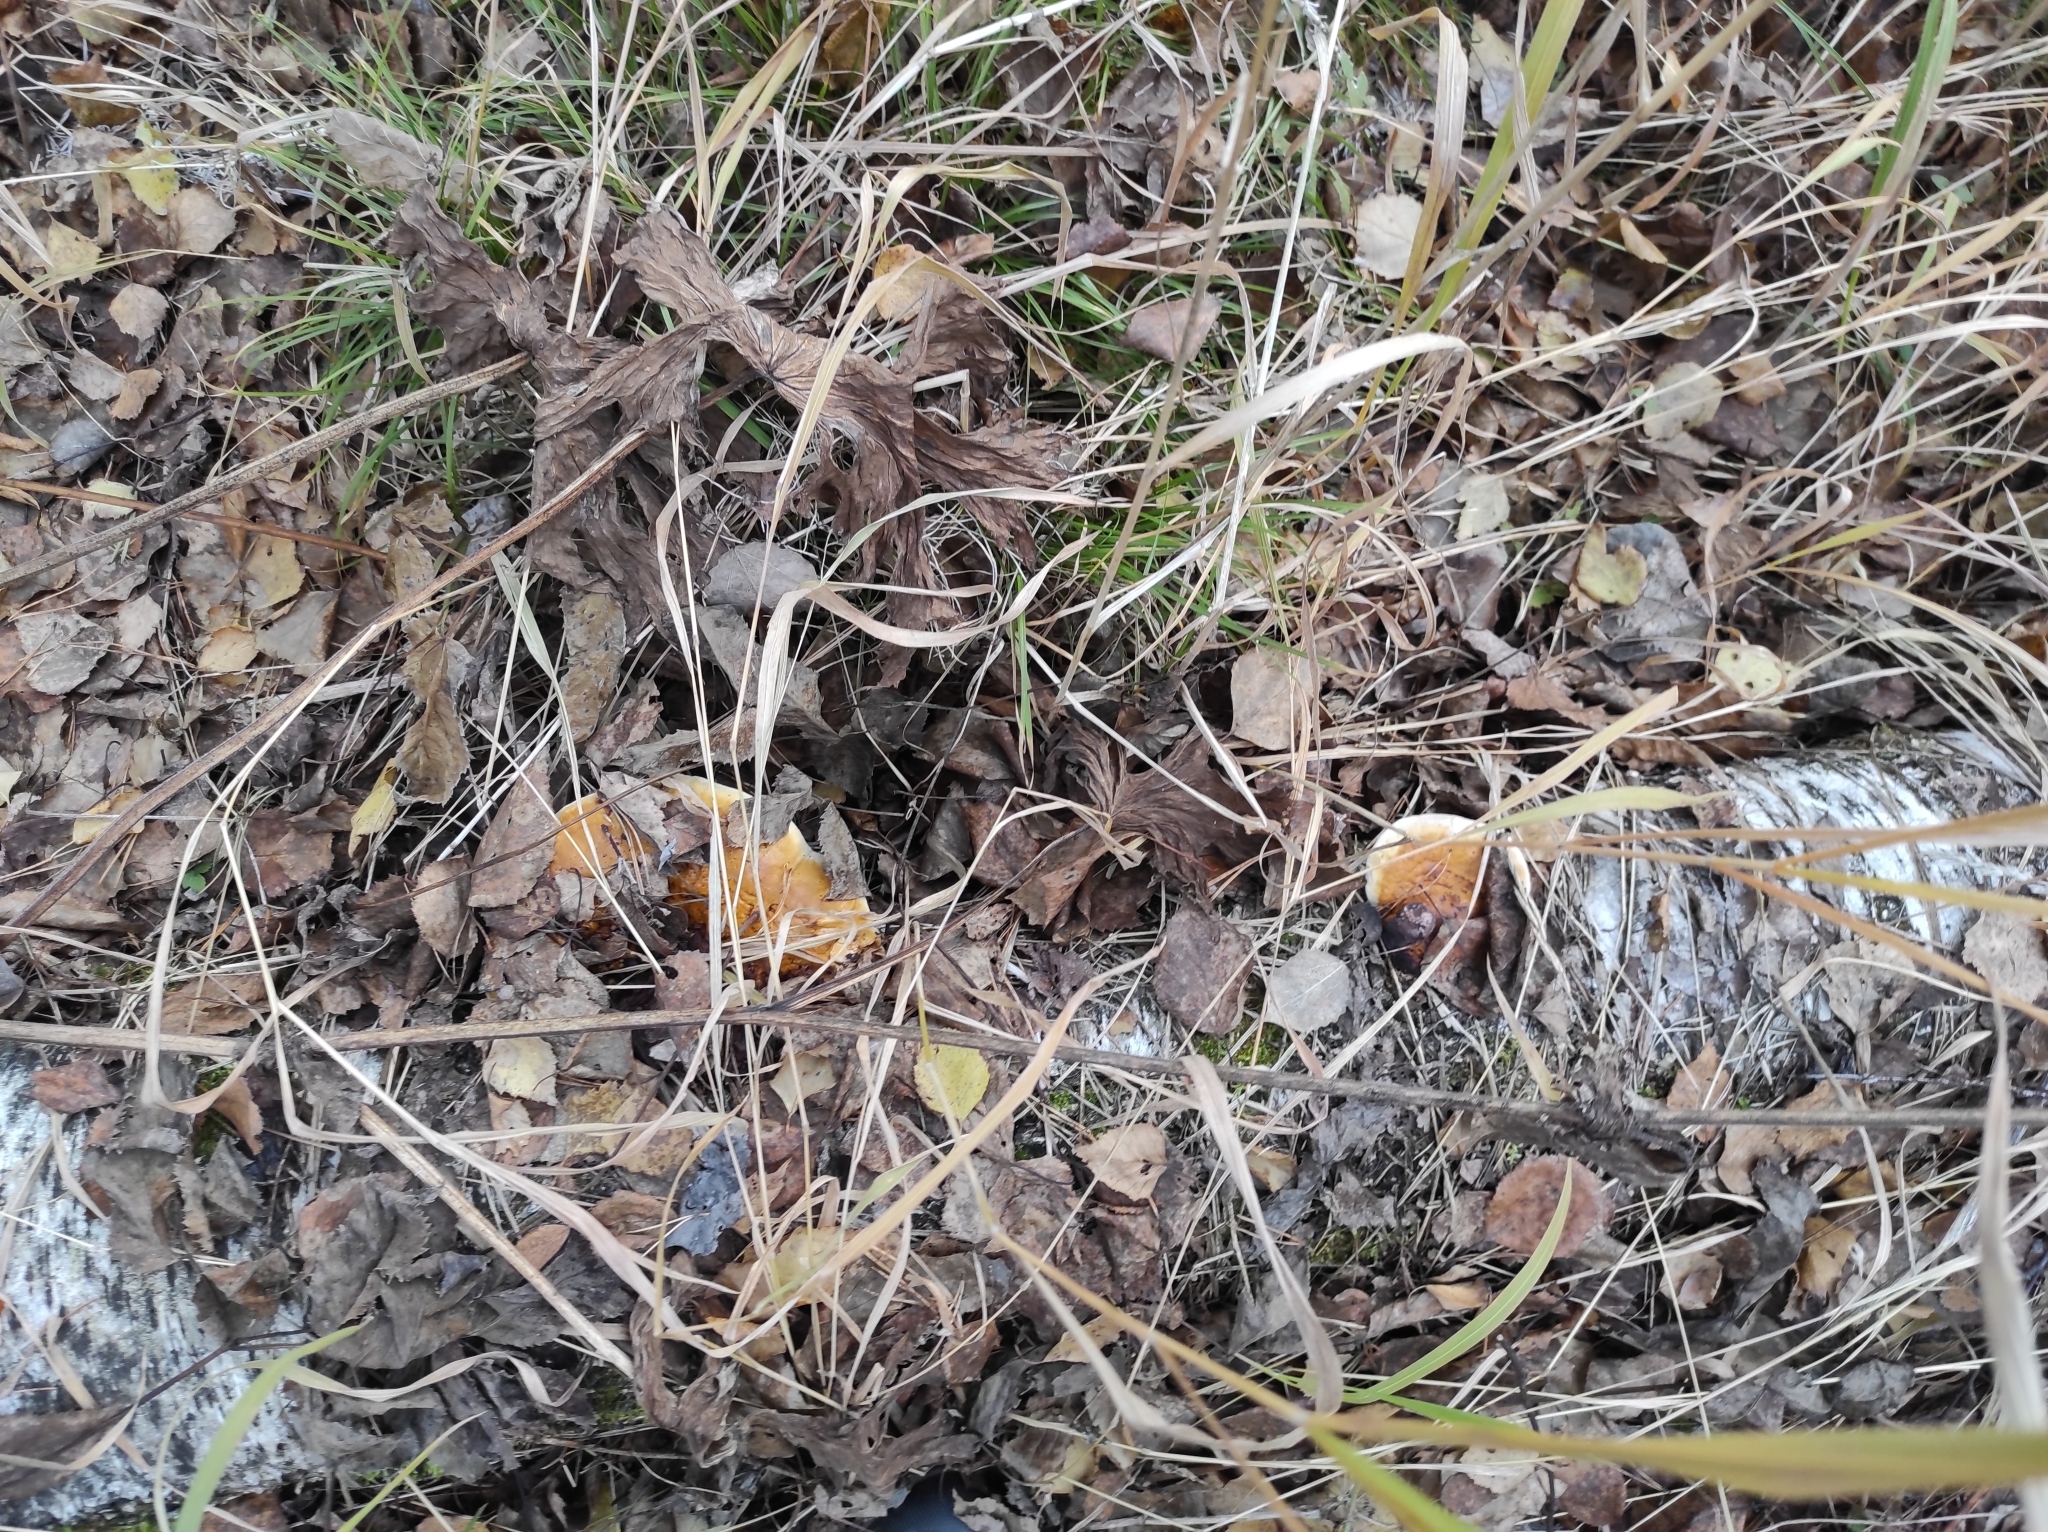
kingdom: Fungi
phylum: Basidiomycota
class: Agaricomycetes
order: Polyporales
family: Fomitopsidaceae
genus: Fomitopsis
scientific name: Fomitopsis pinicola
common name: Red-belted bracket
